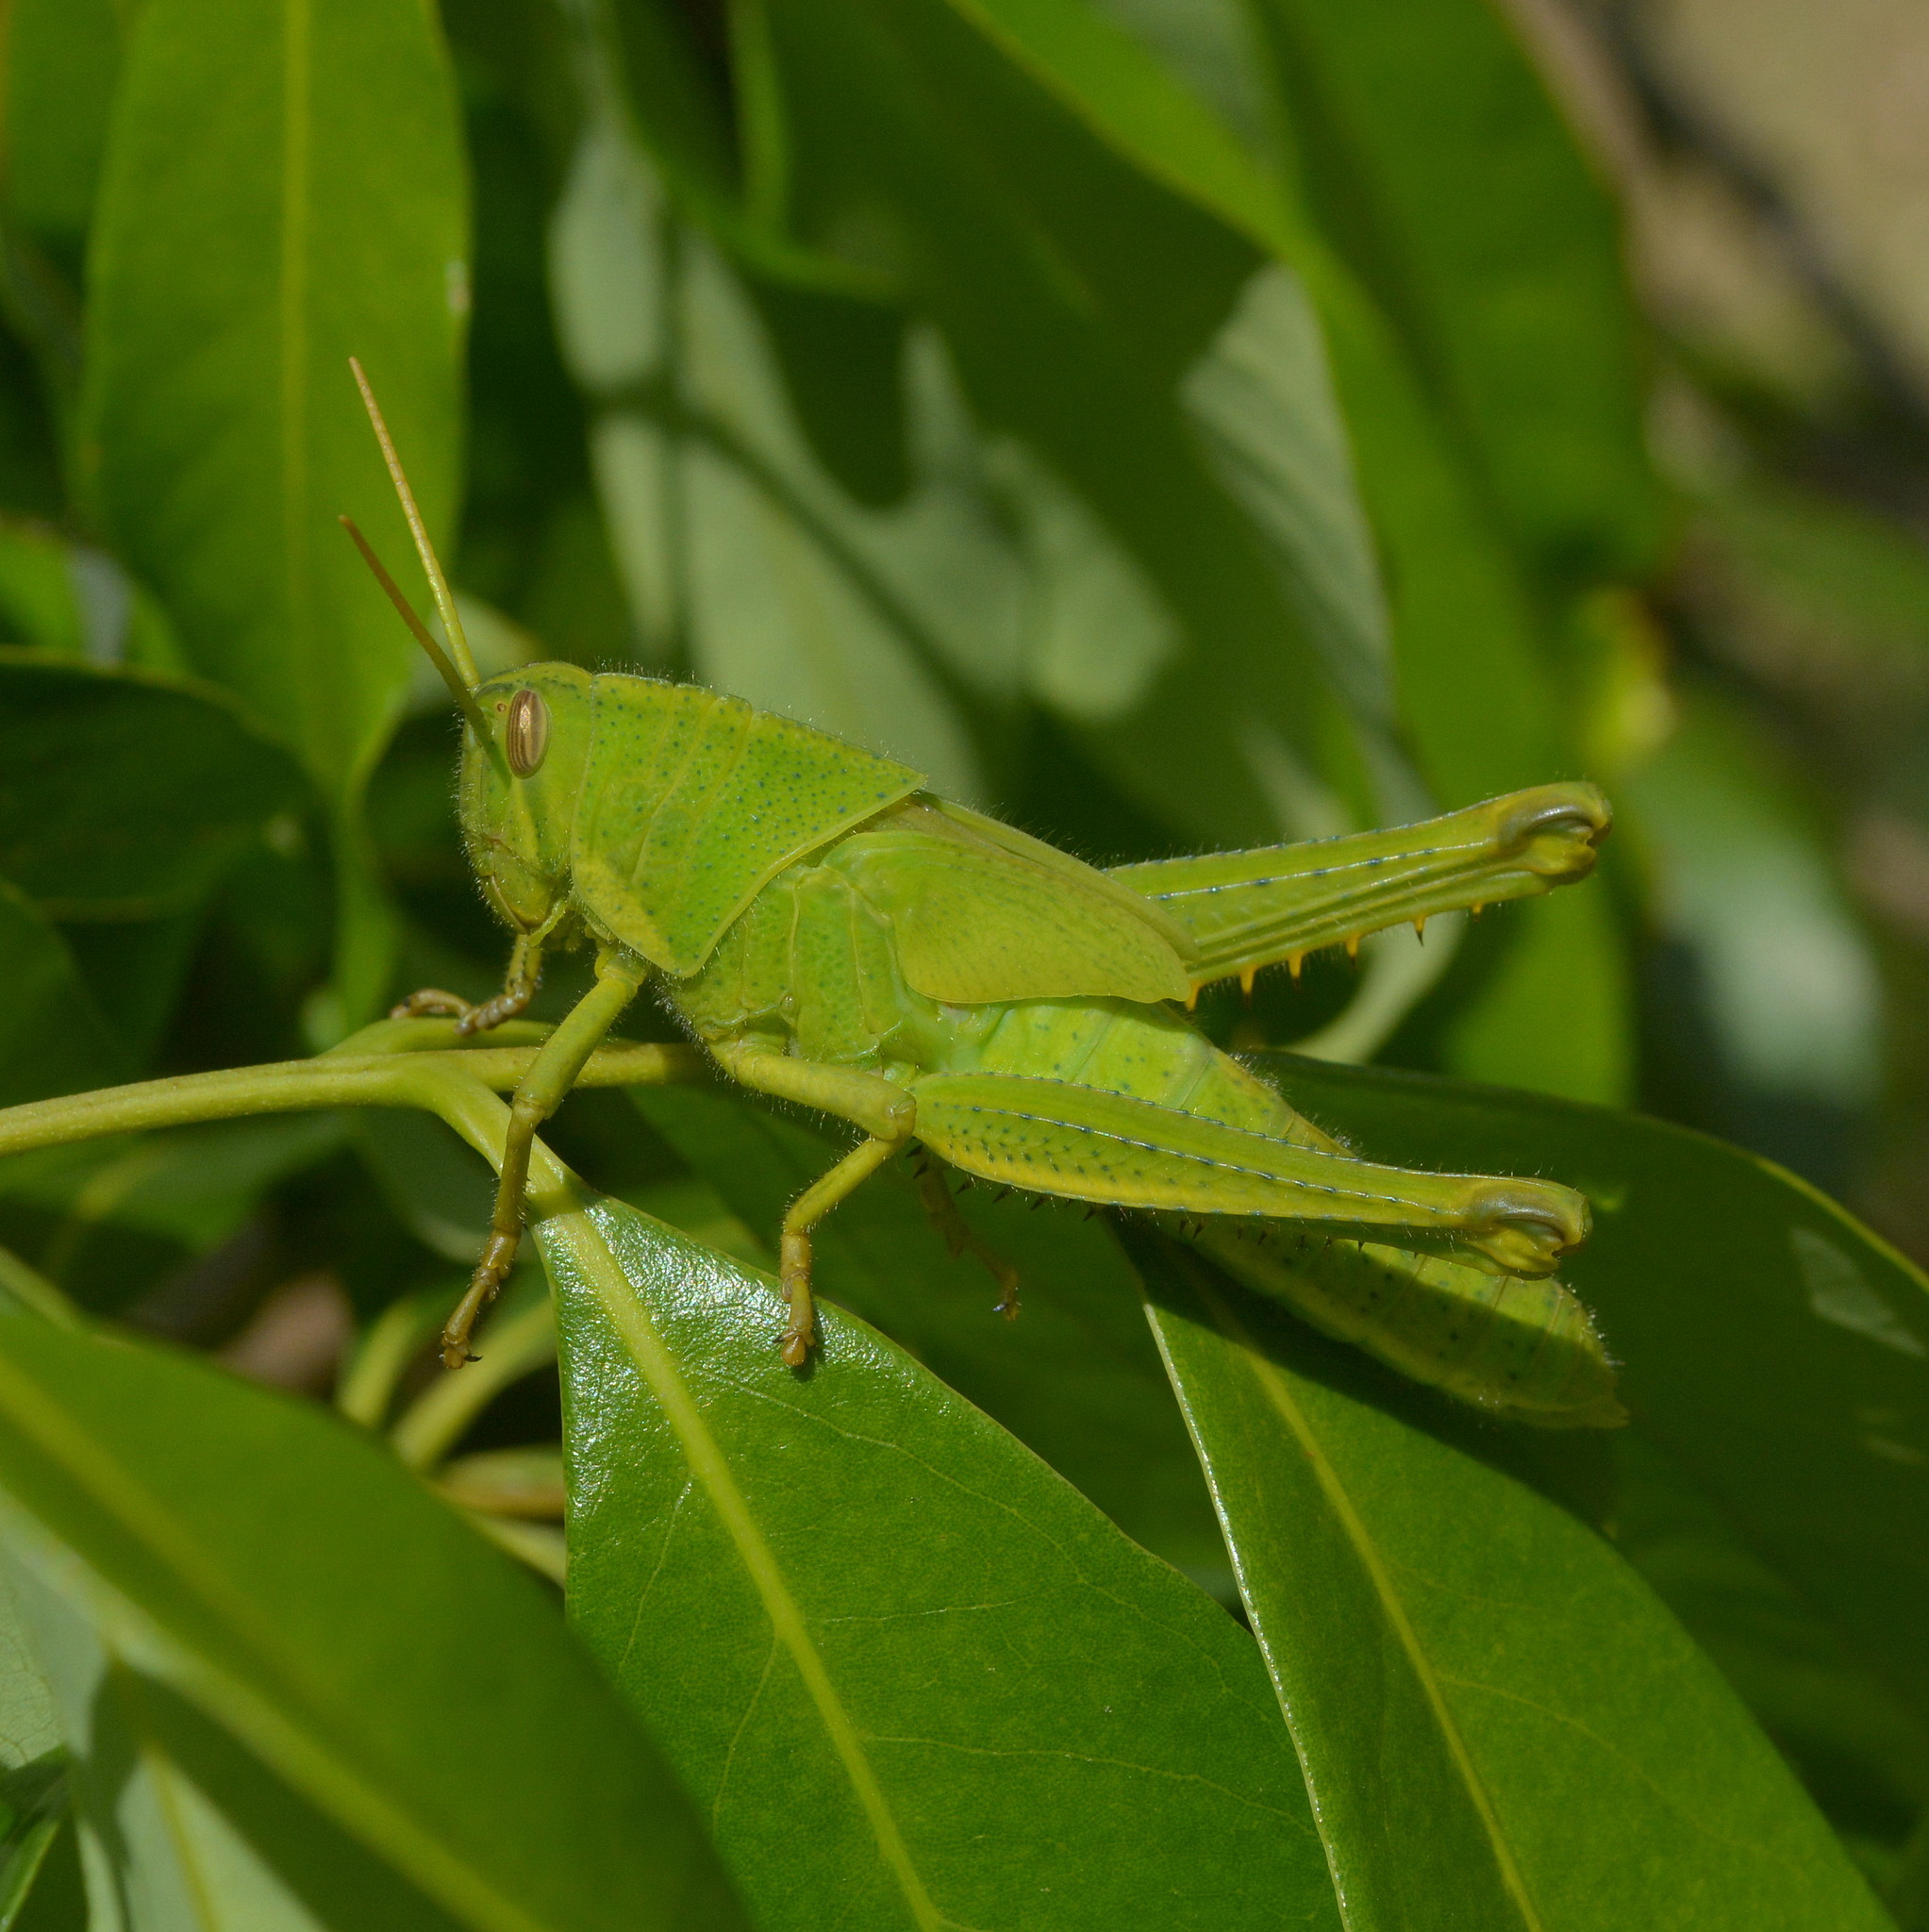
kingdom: Animalia
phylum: Arthropoda
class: Insecta
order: Orthoptera
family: Acrididae
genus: Schistocerca
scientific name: Schistocerca flavofasciata
